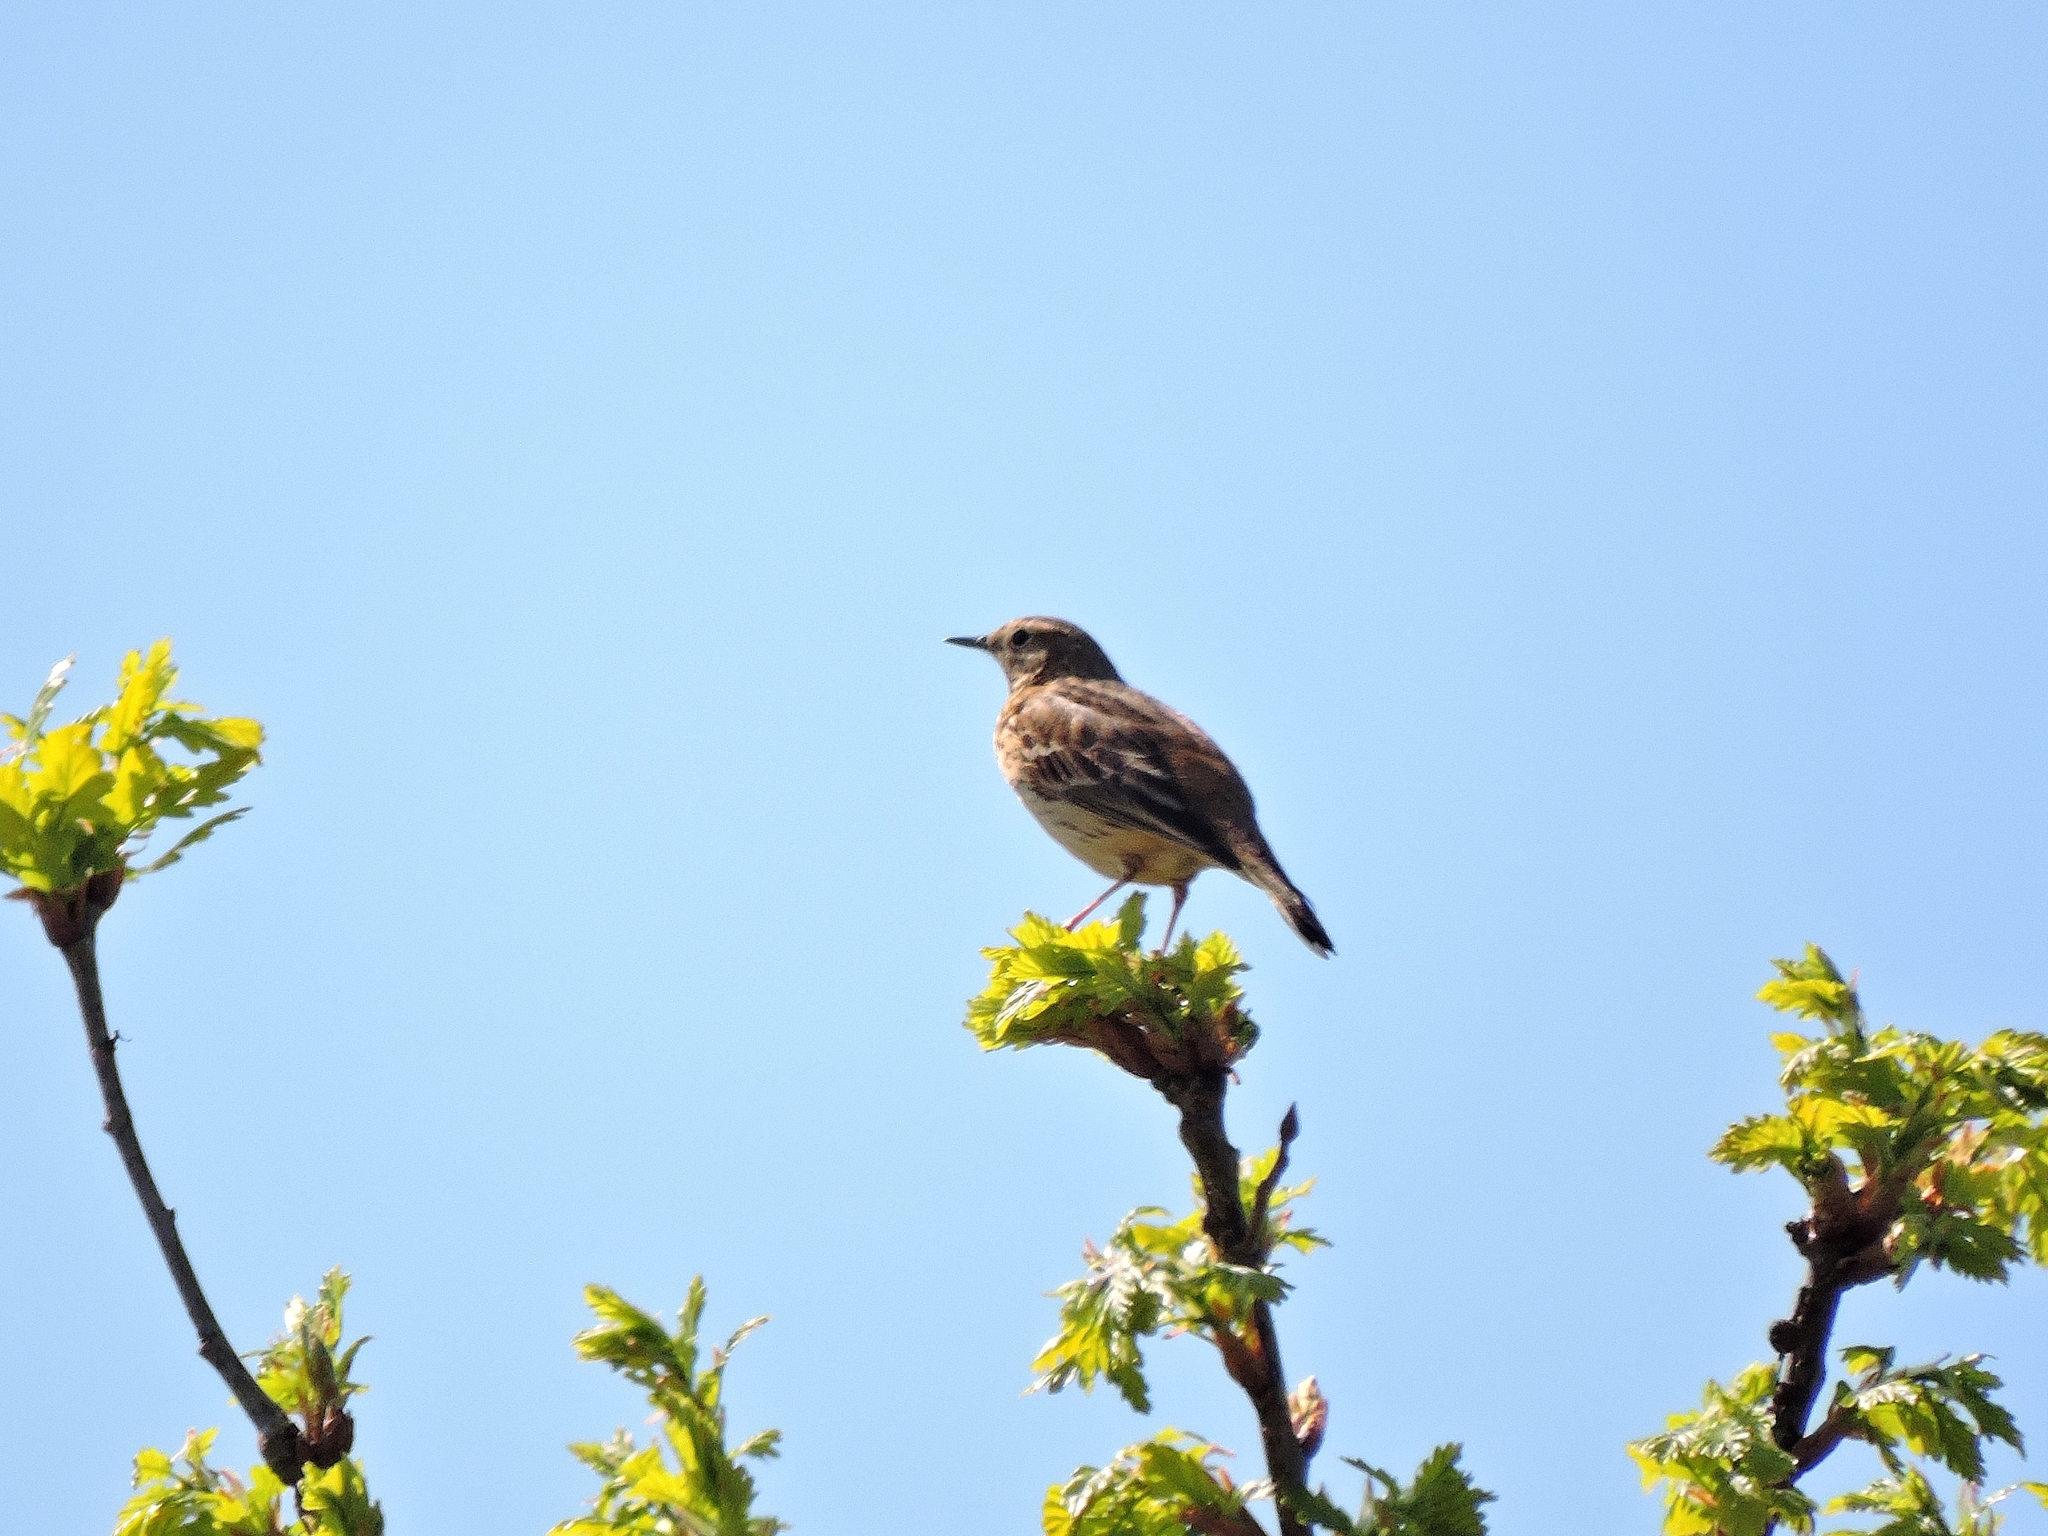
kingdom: Animalia
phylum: Chordata
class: Aves
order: Passeriformes
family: Motacillidae
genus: Anthus
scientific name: Anthus pratensis
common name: Meadow pipit
